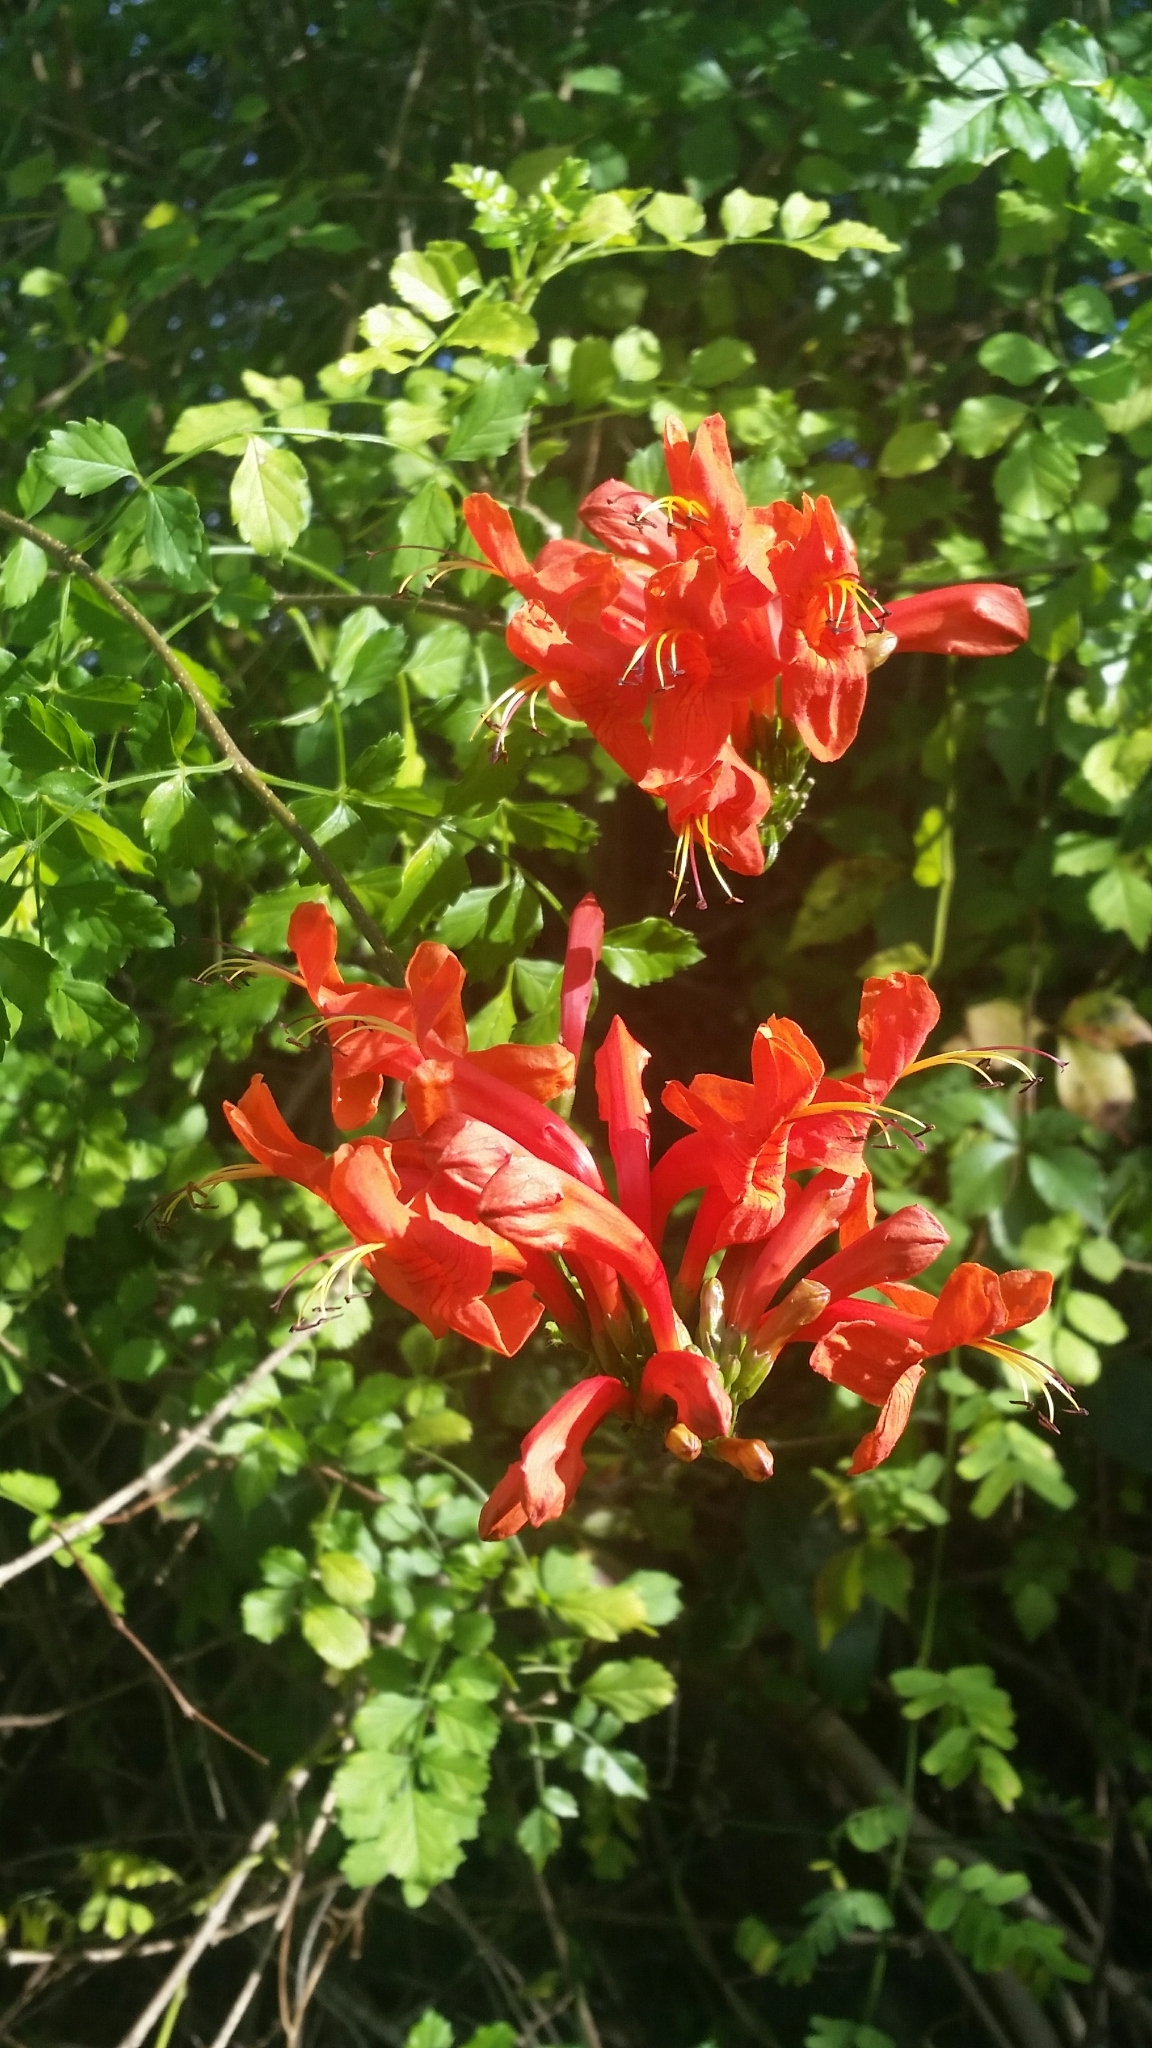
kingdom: Plantae
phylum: Tracheophyta
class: Magnoliopsida
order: Lamiales
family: Bignoniaceae
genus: Tecomaria
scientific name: Tecomaria capensis
